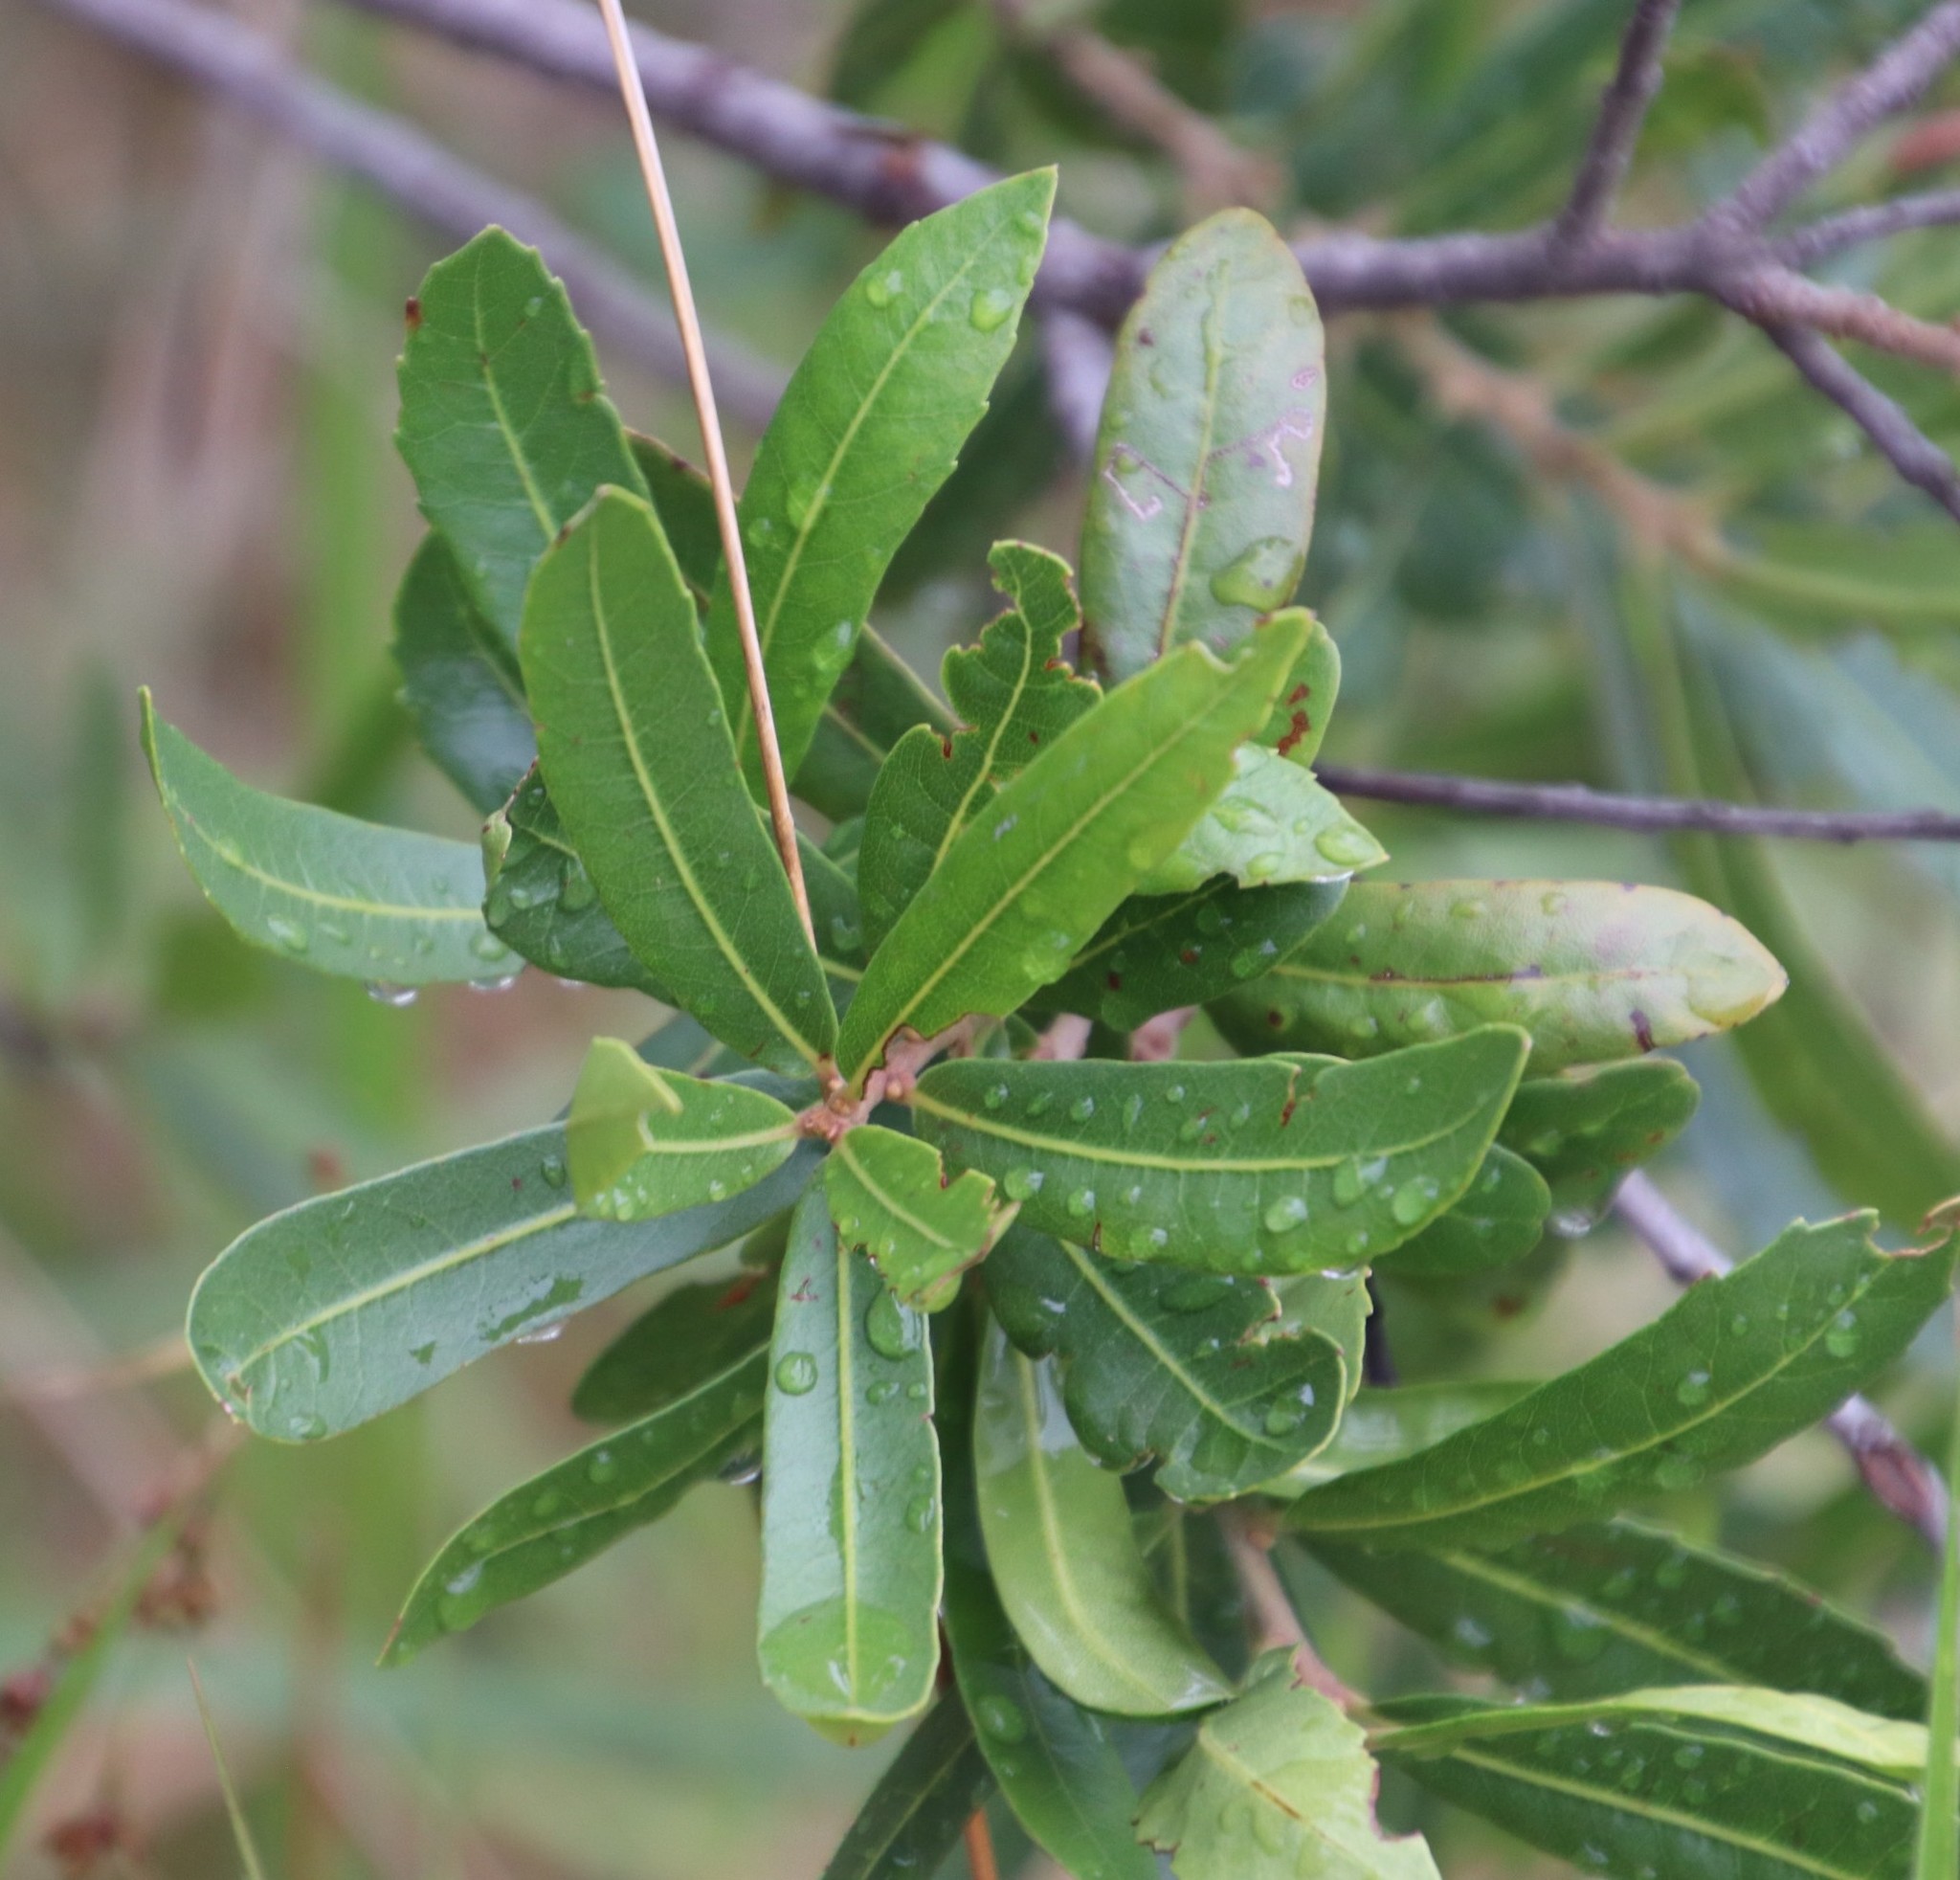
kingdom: Plantae
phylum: Tracheophyta
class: Magnoliopsida
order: Fagales
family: Myricaceae
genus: Morella
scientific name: Morella serrata
